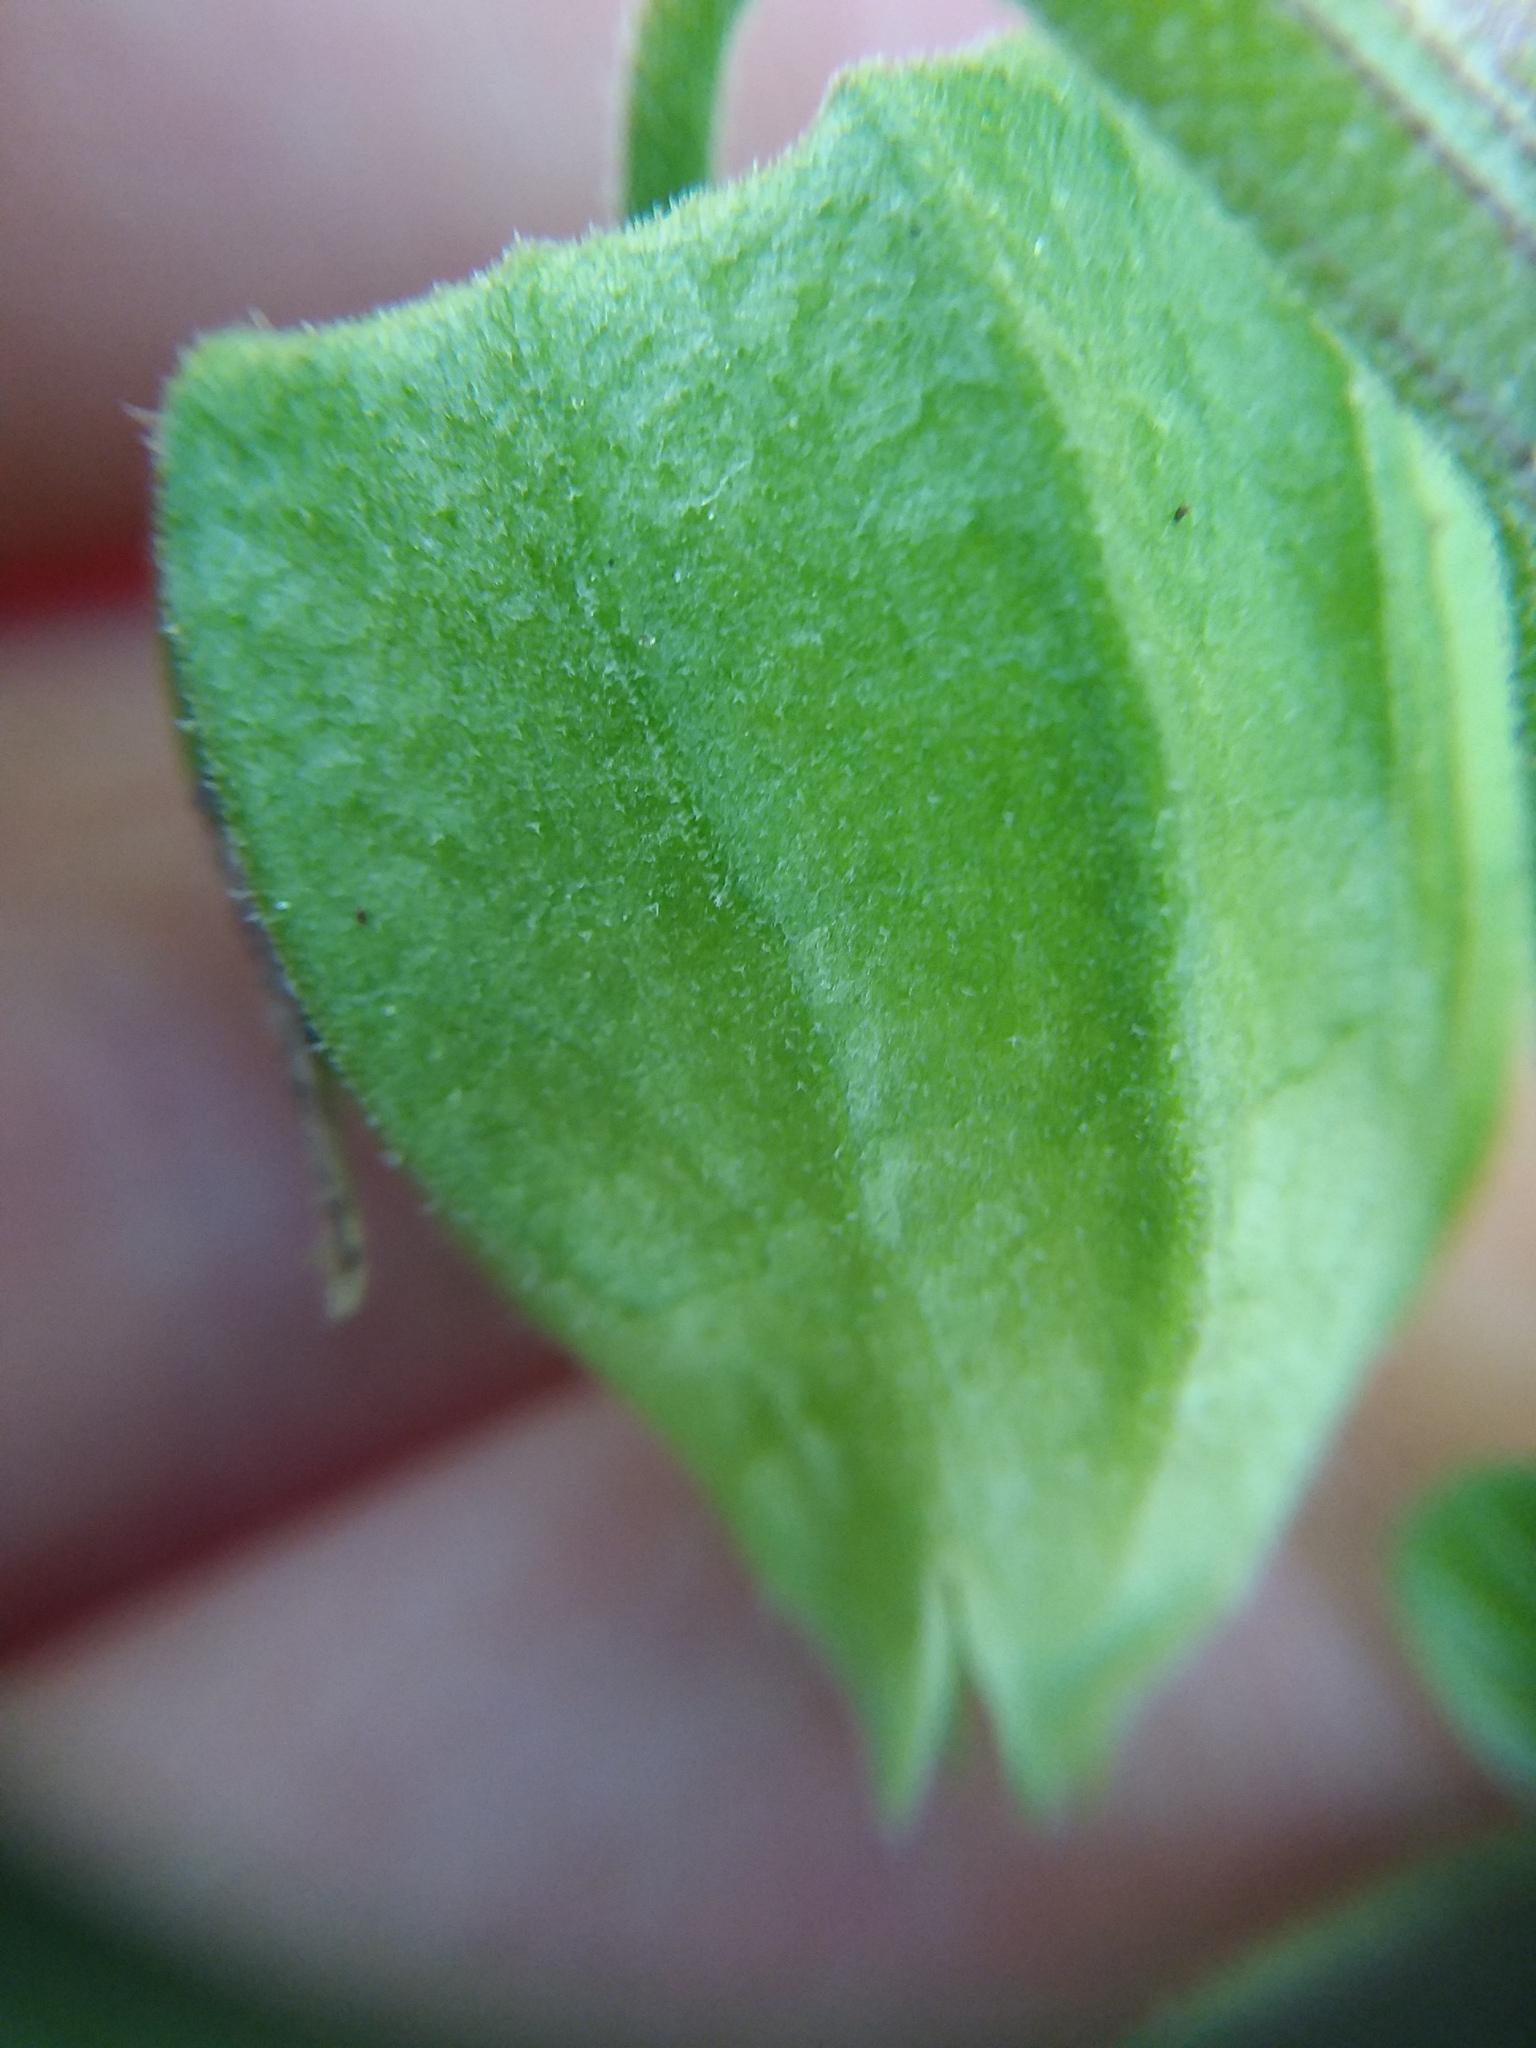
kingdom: Plantae
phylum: Tracheophyta
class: Magnoliopsida
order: Solanales
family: Solanaceae
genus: Physalis
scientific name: Physalis walteri
